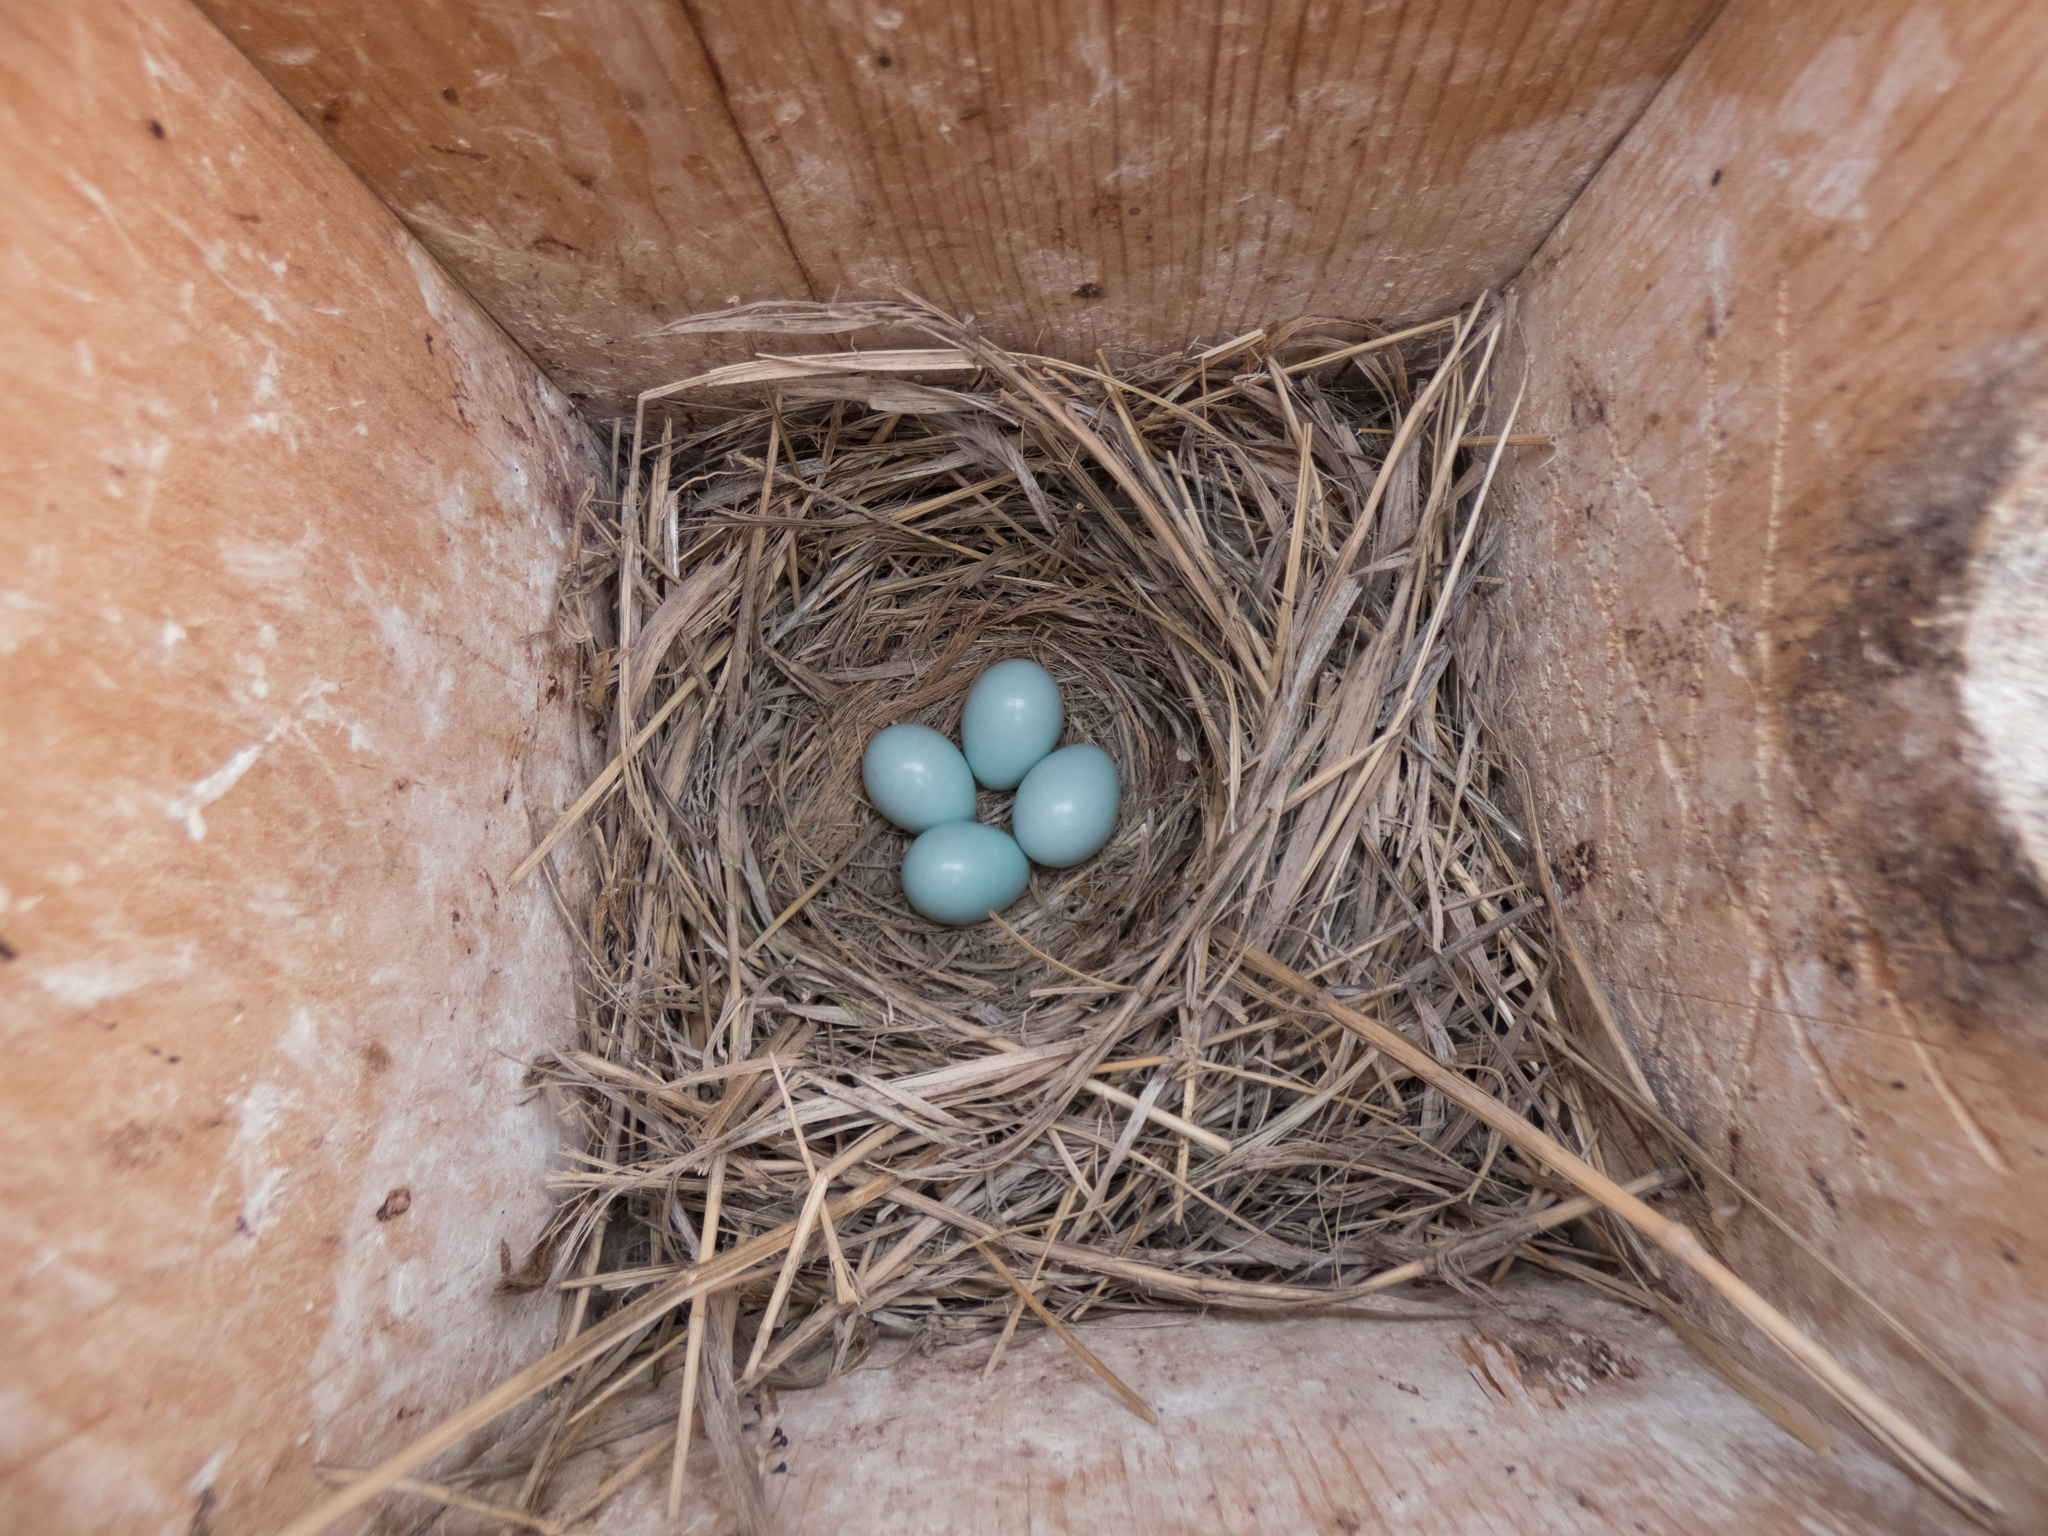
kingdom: Animalia
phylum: Chordata
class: Aves
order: Passeriformes
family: Turdidae
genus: Sialia
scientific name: Sialia currucoides
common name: Mountain bluebird
